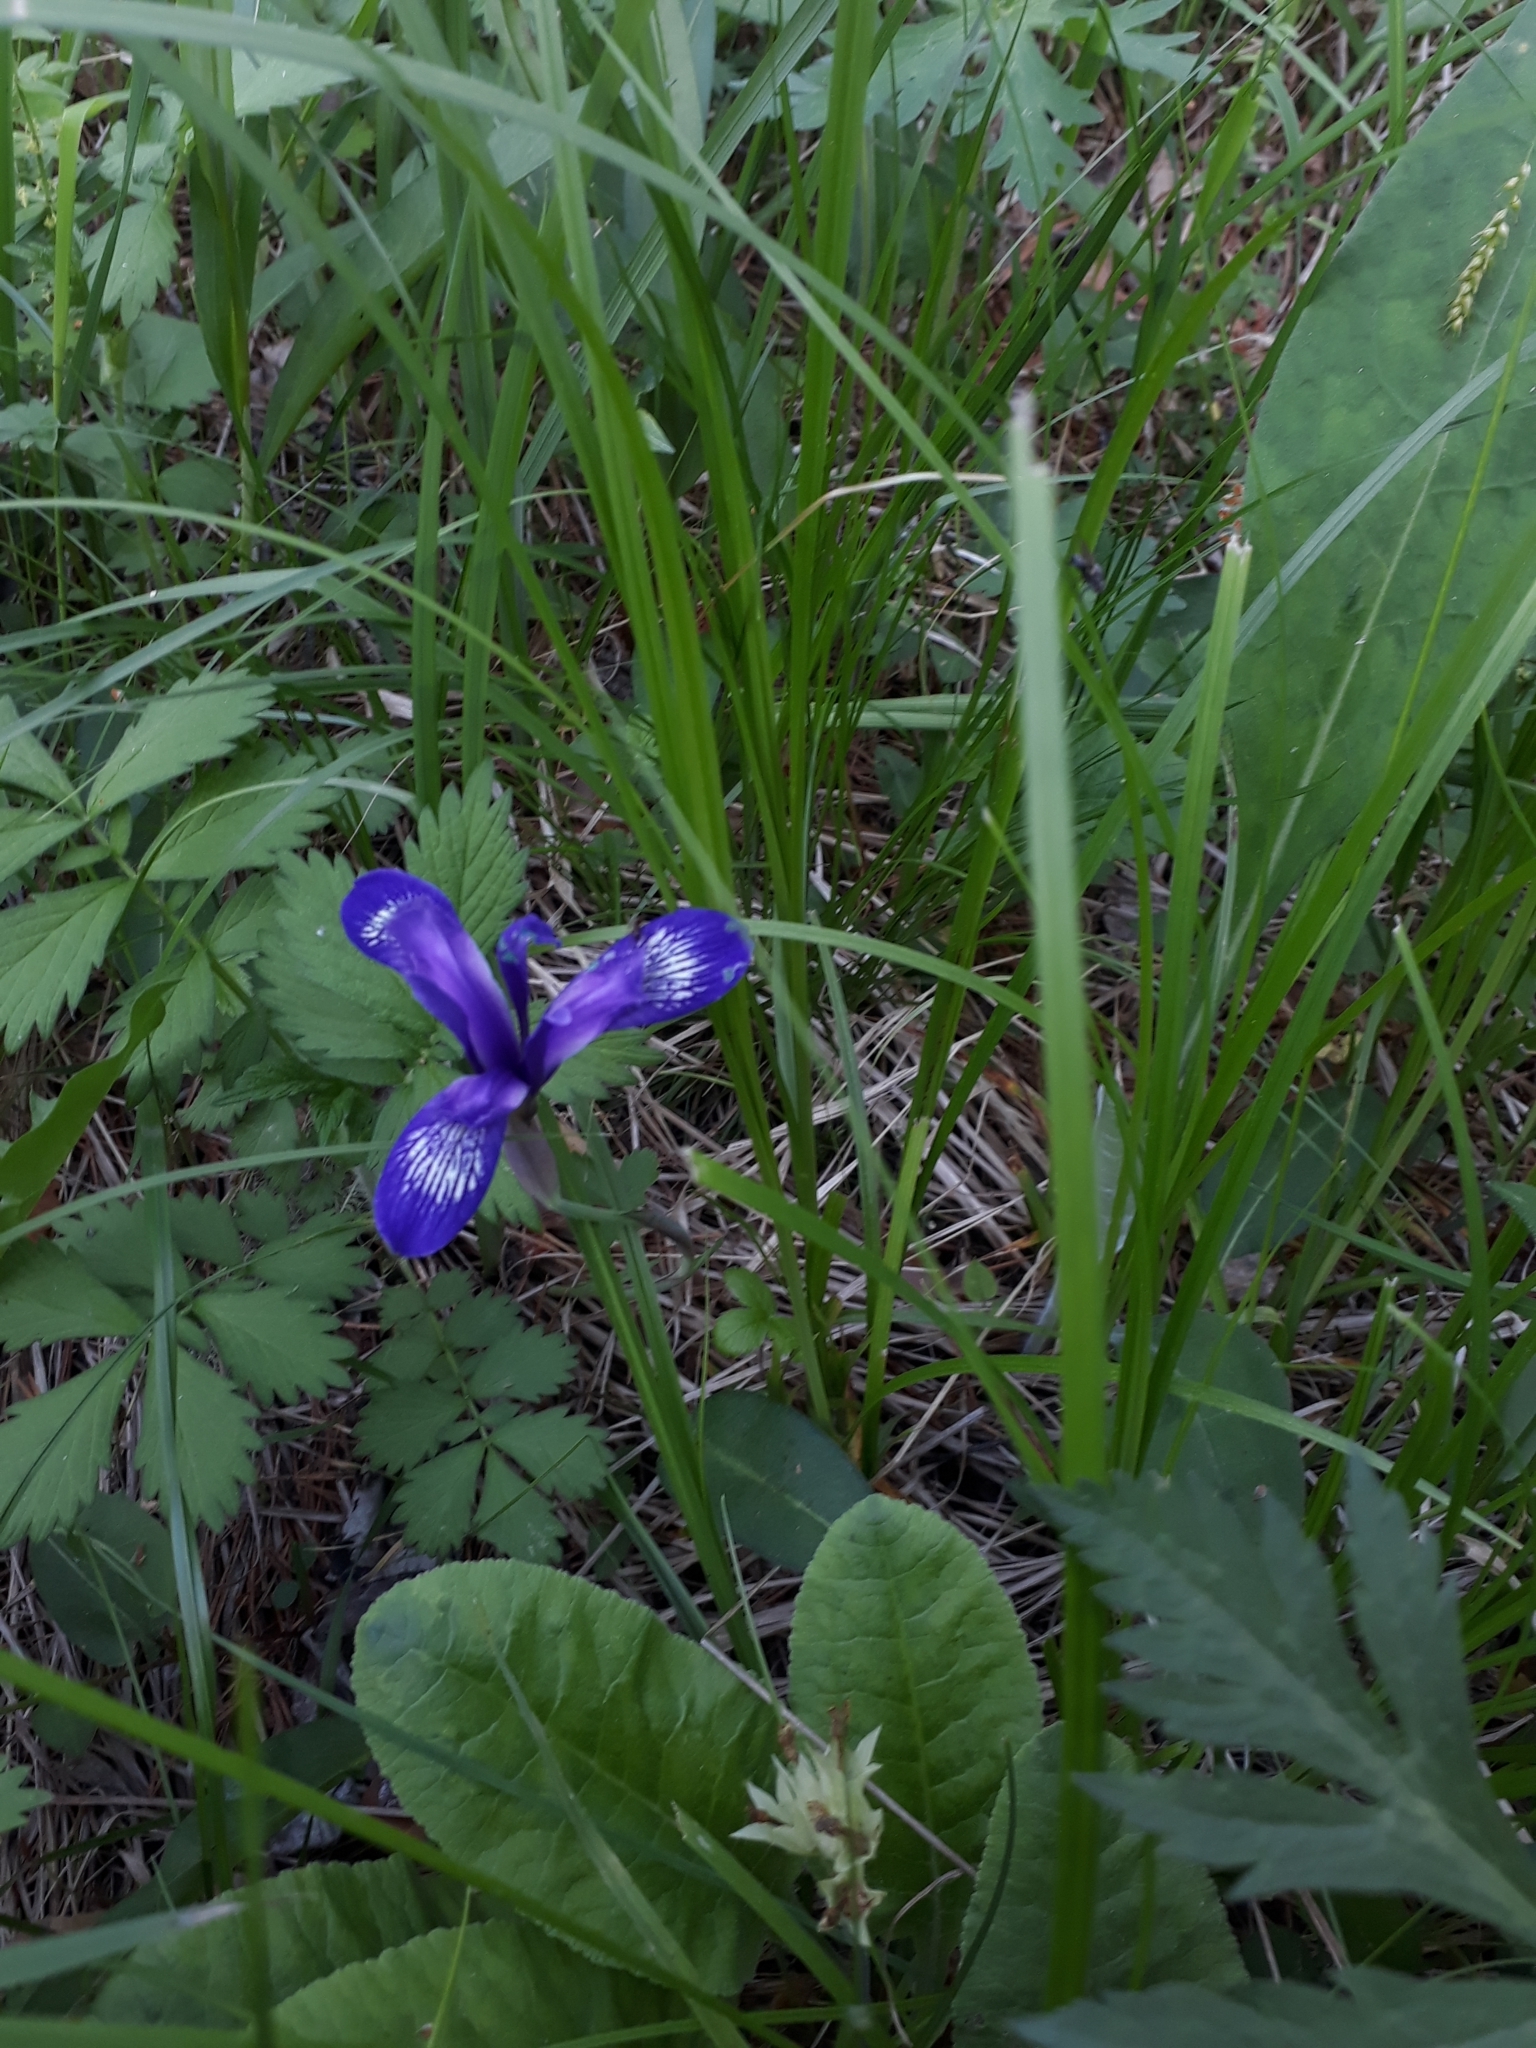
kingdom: Plantae
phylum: Tracheophyta
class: Liliopsida
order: Asparagales
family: Iridaceae
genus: Iris
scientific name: Iris ruthenica
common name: Purple-bract iris
